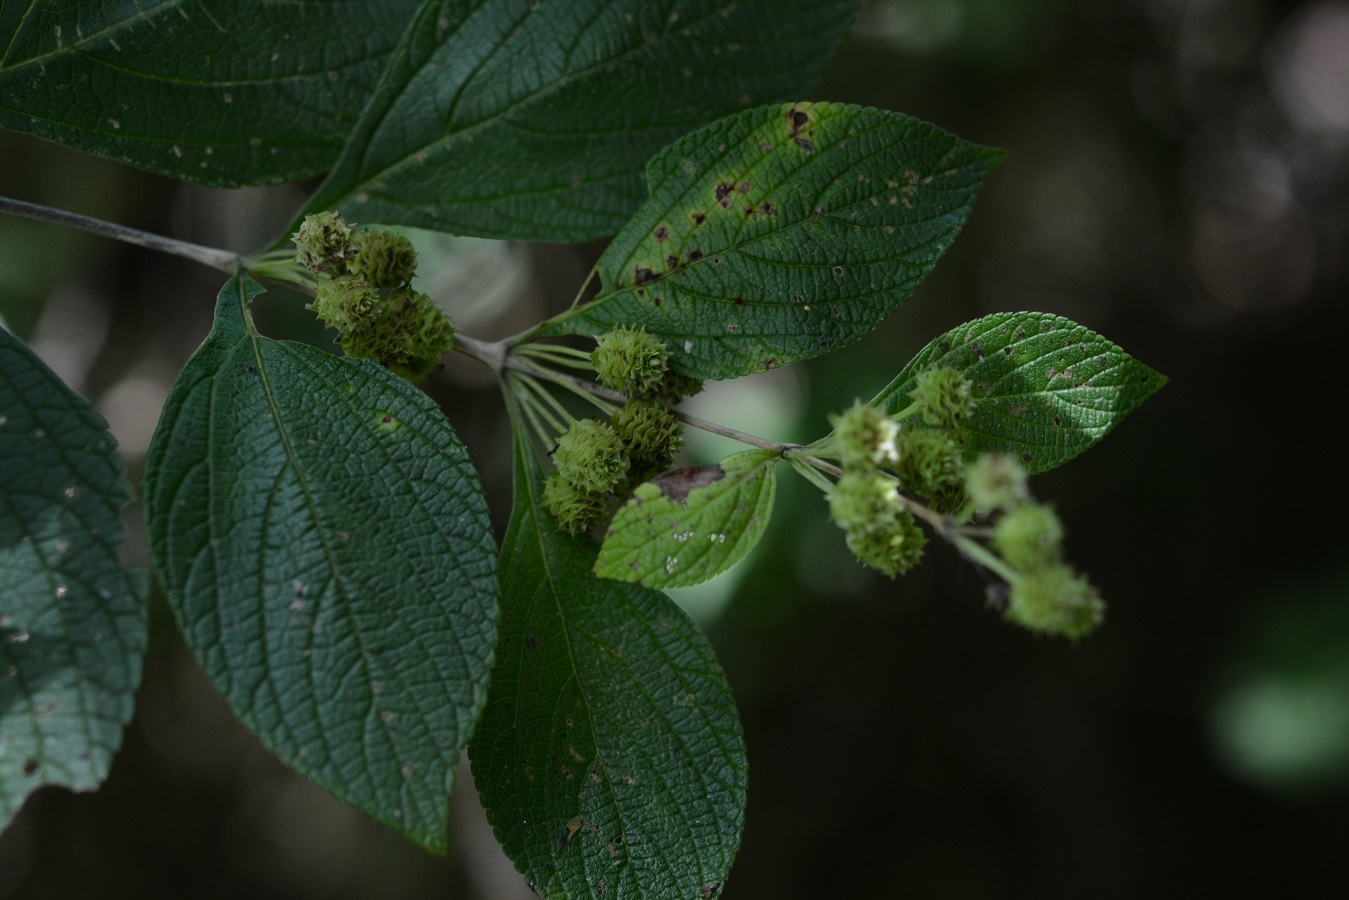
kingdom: Plantae
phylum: Tracheophyta
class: Magnoliopsida
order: Lamiales
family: Verbenaceae
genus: Lippia
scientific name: Lippia cardiostegia
